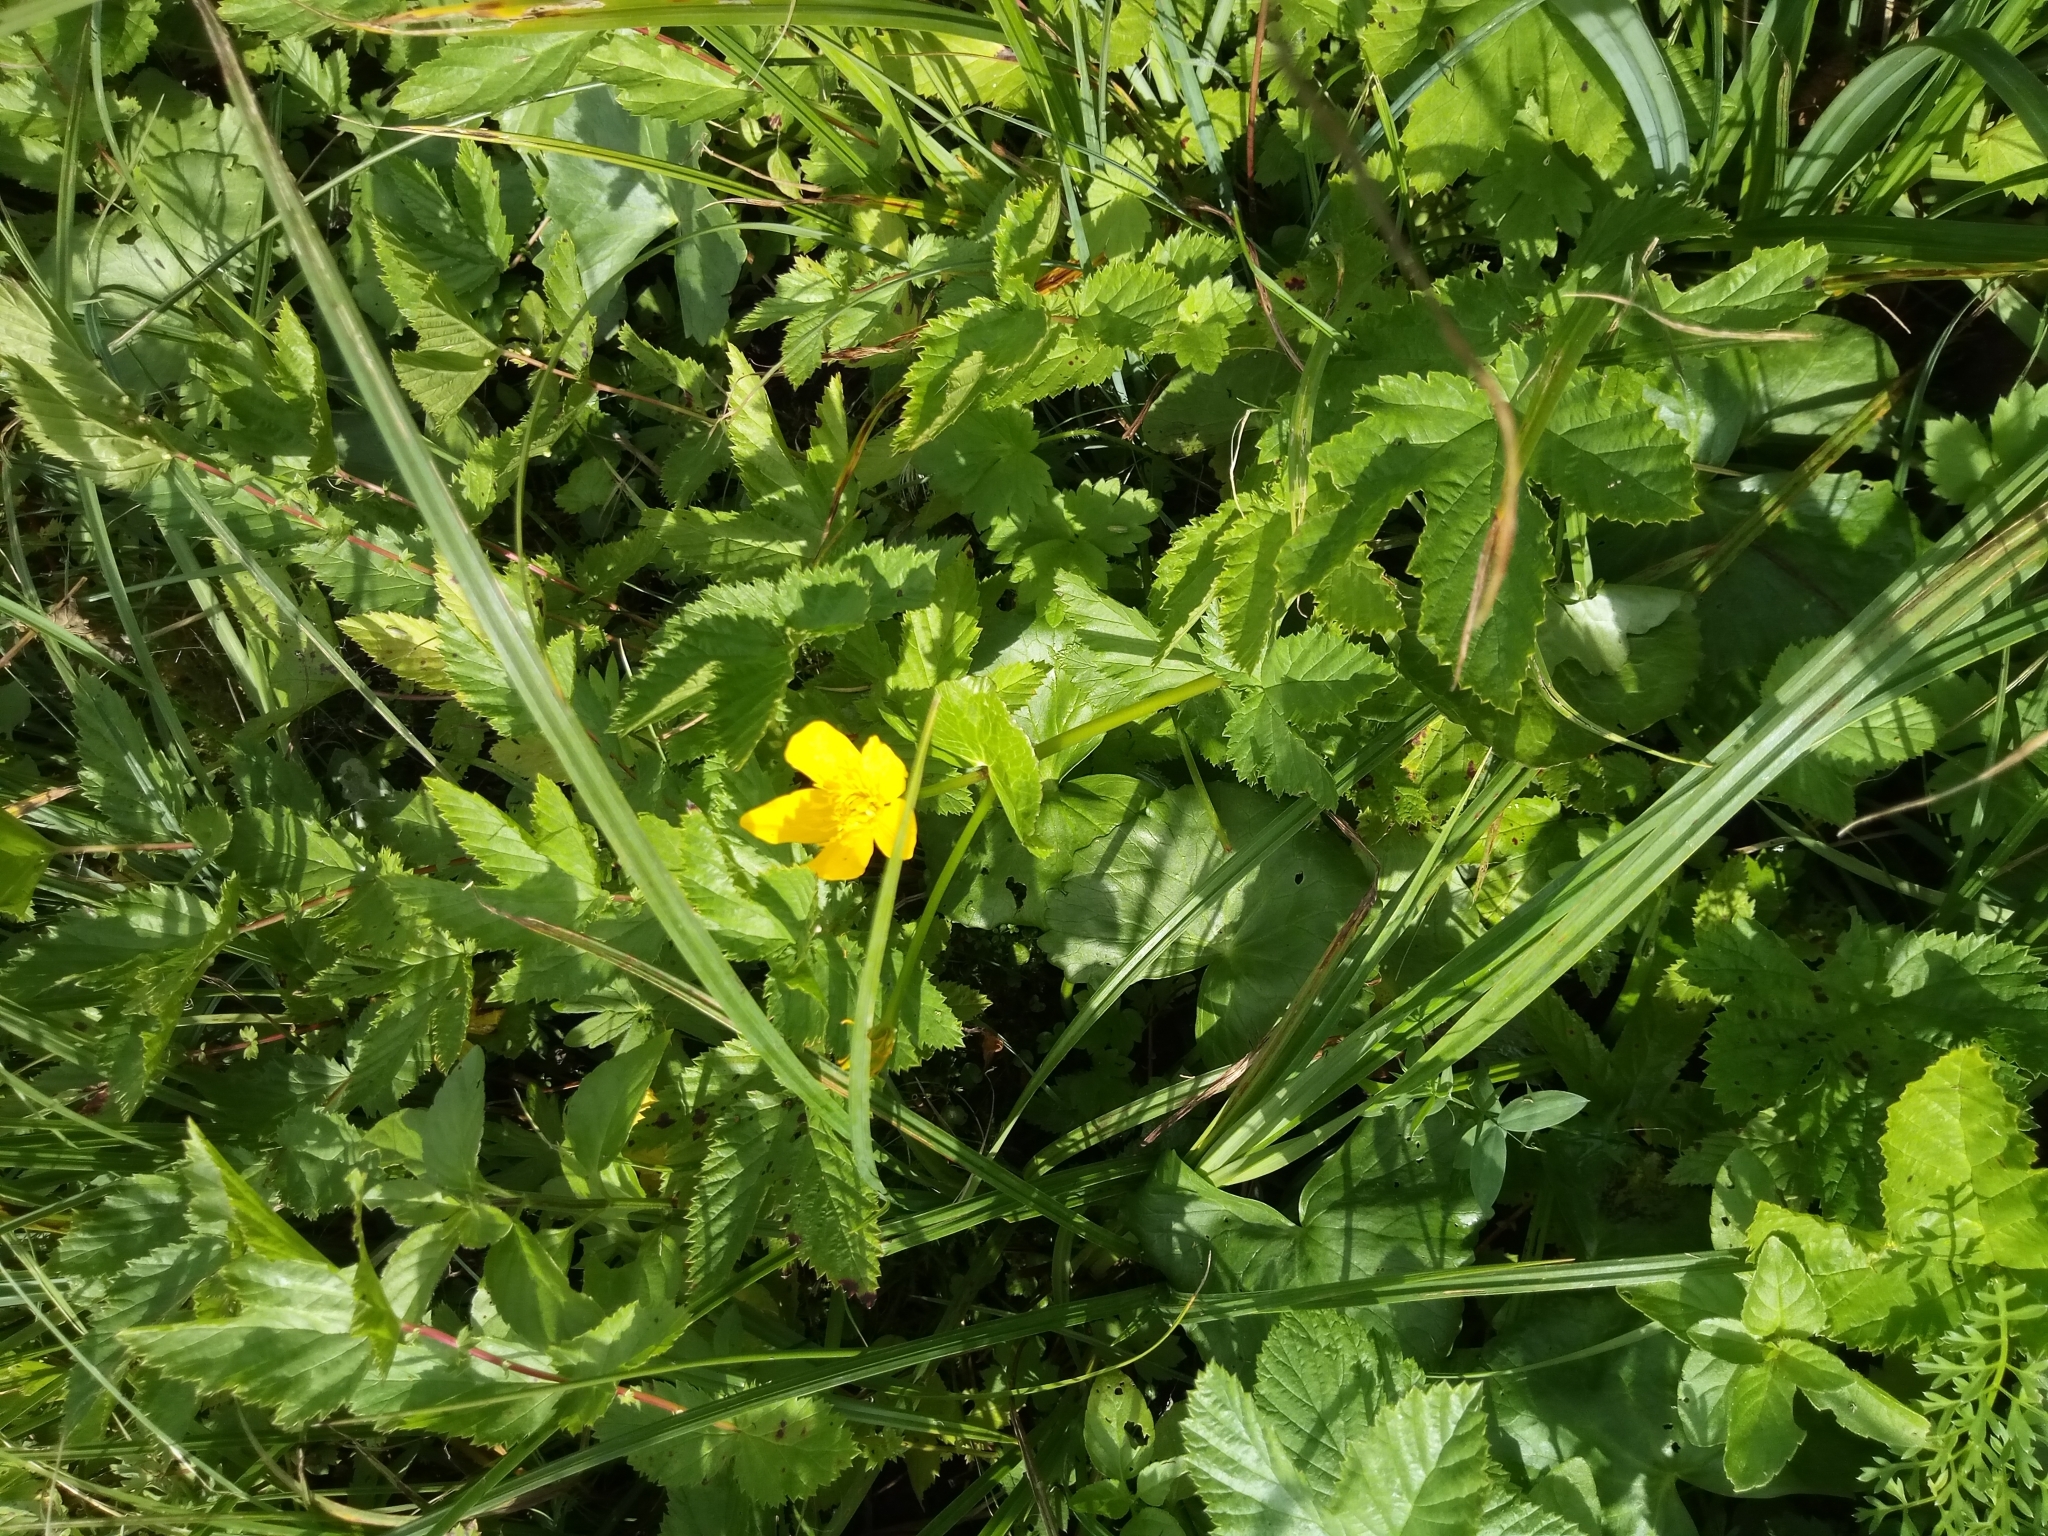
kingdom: Plantae
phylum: Tracheophyta
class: Magnoliopsida
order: Ranunculales
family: Ranunculaceae
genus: Caltha
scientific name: Caltha palustris
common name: Marsh marigold
